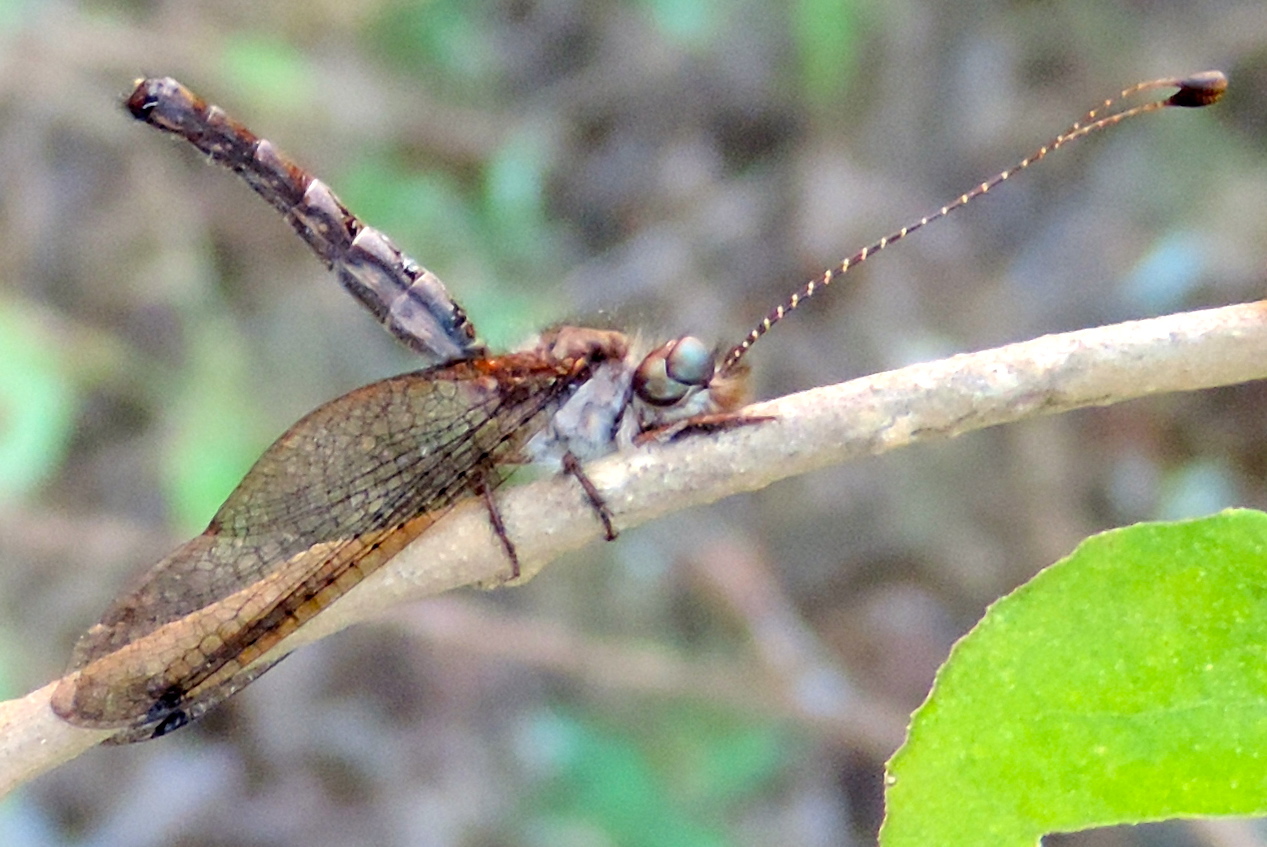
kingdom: Animalia
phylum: Arthropoda
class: Insecta
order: Neuroptera
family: Myrmeleontidae
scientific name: Myrmeleontidae
